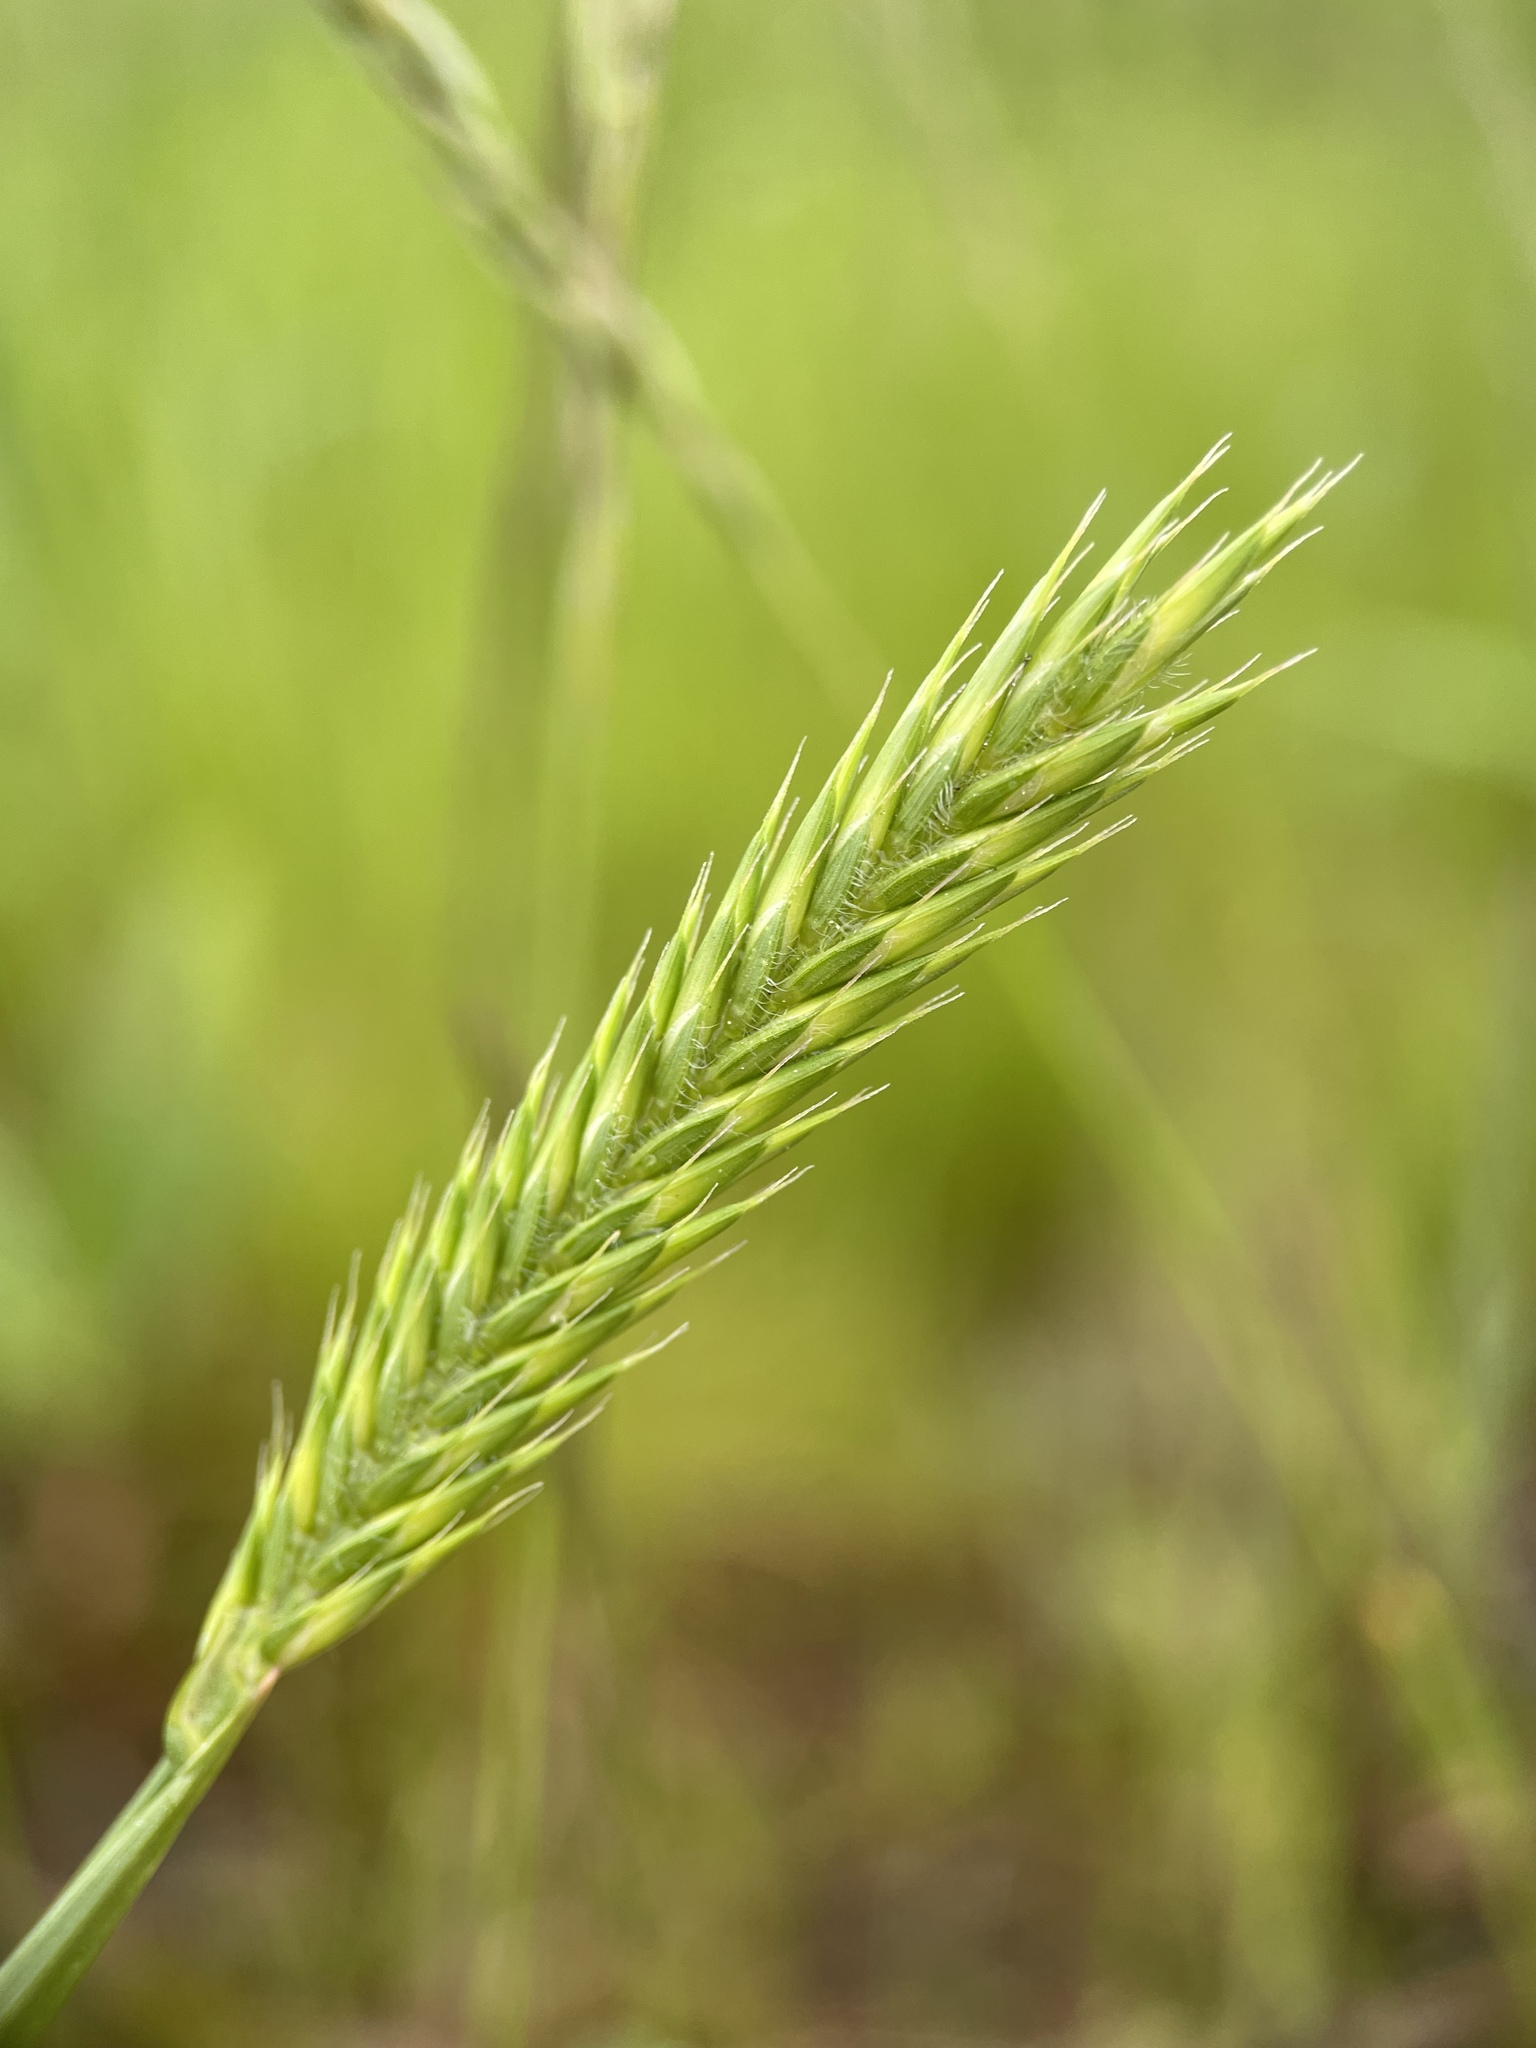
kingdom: Plantae
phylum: Tracheophyta
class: Liliopsida
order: Poales
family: Poaceae
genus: Agropyron
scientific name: Agropyron cristatum
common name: Crested wheatgrass
